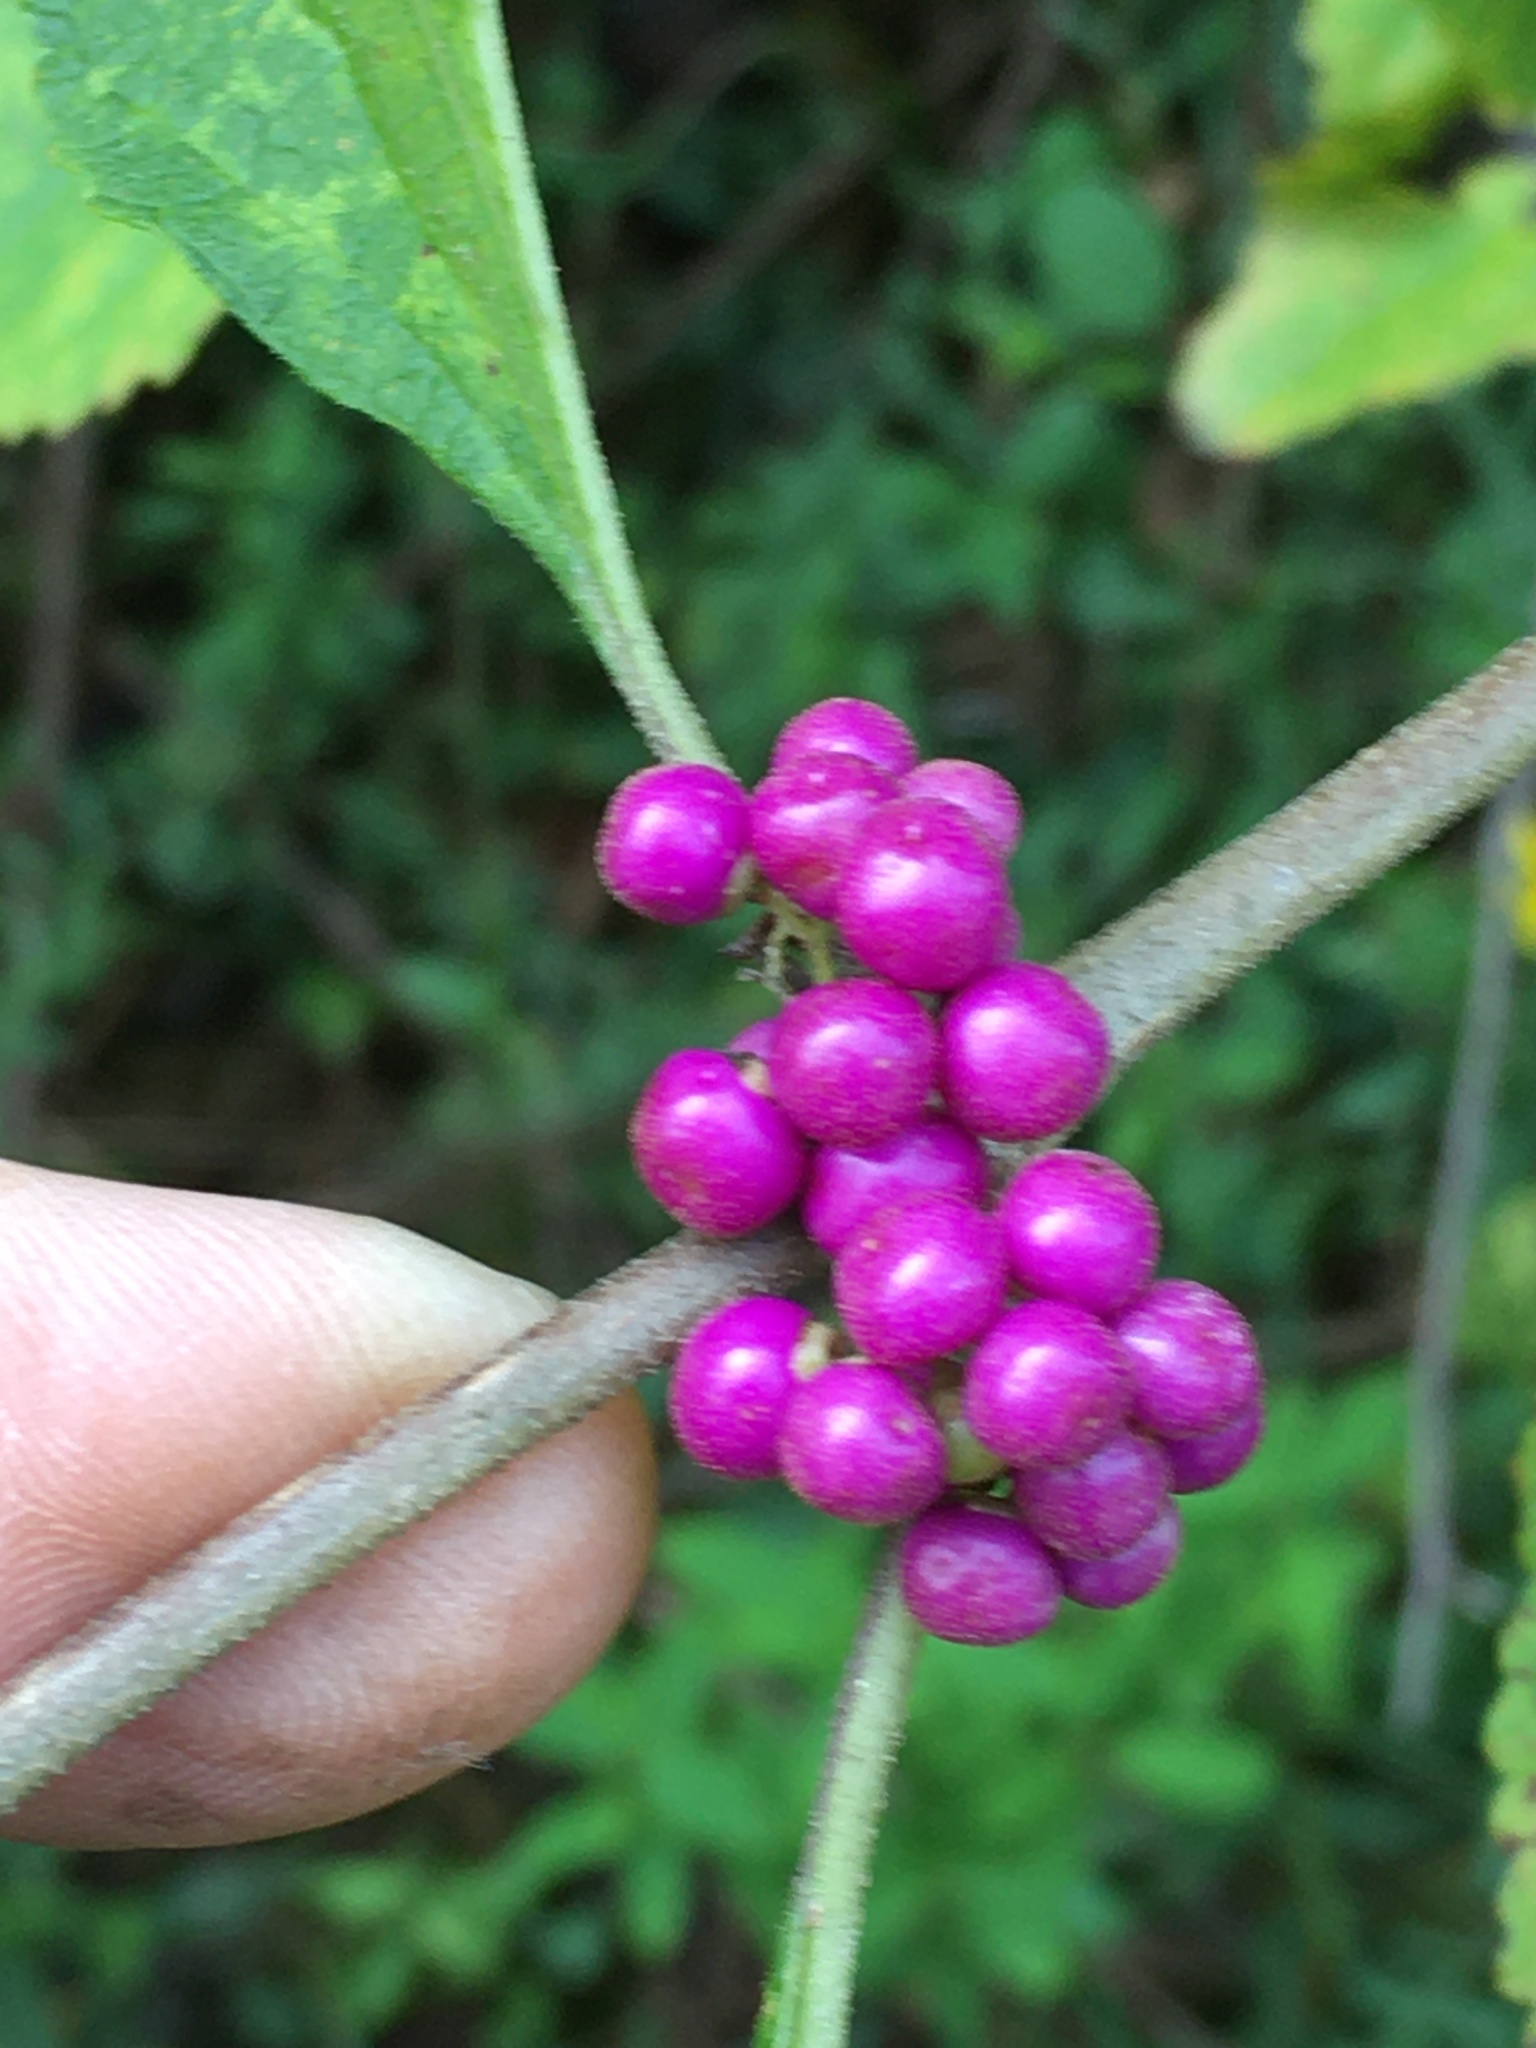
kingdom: Plantae
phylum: Tracheophyta
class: Magnoliopsida
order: Lamiales
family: Lamiaceae
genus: Callicarpa
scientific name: Callicarpa americana
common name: American beautyberry
